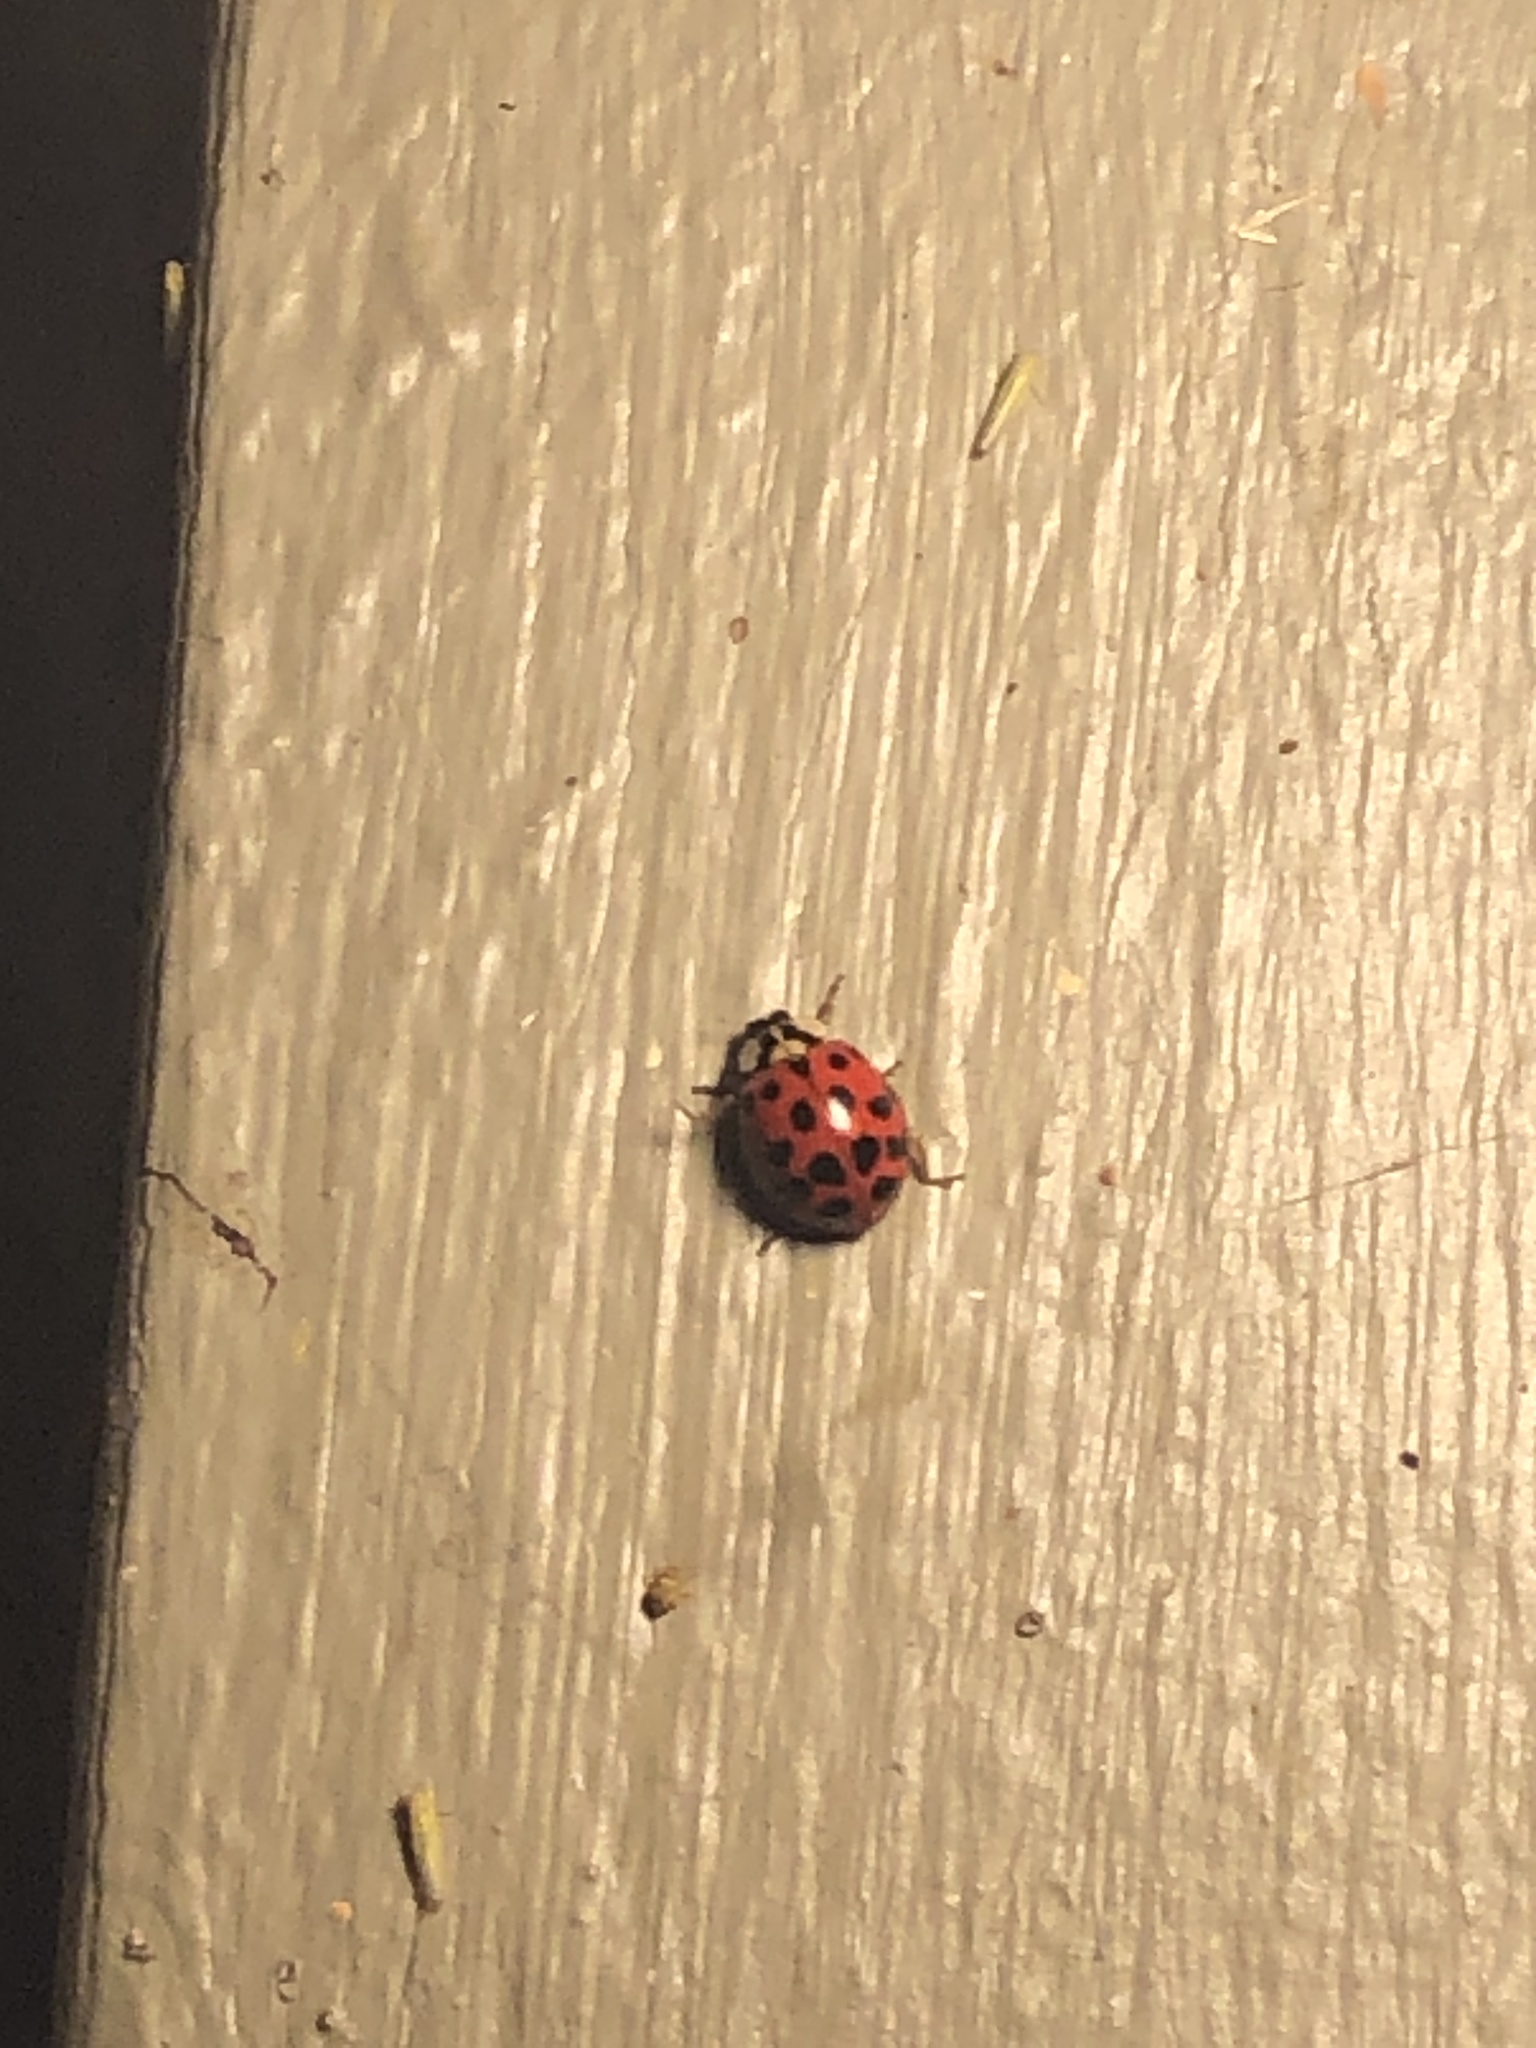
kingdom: Animalia
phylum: Arthropoda
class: Insecta
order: Coleoptera
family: Coccinellidae
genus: Harmonia
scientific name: Harmonia axyridis
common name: Harlequin ladybird
